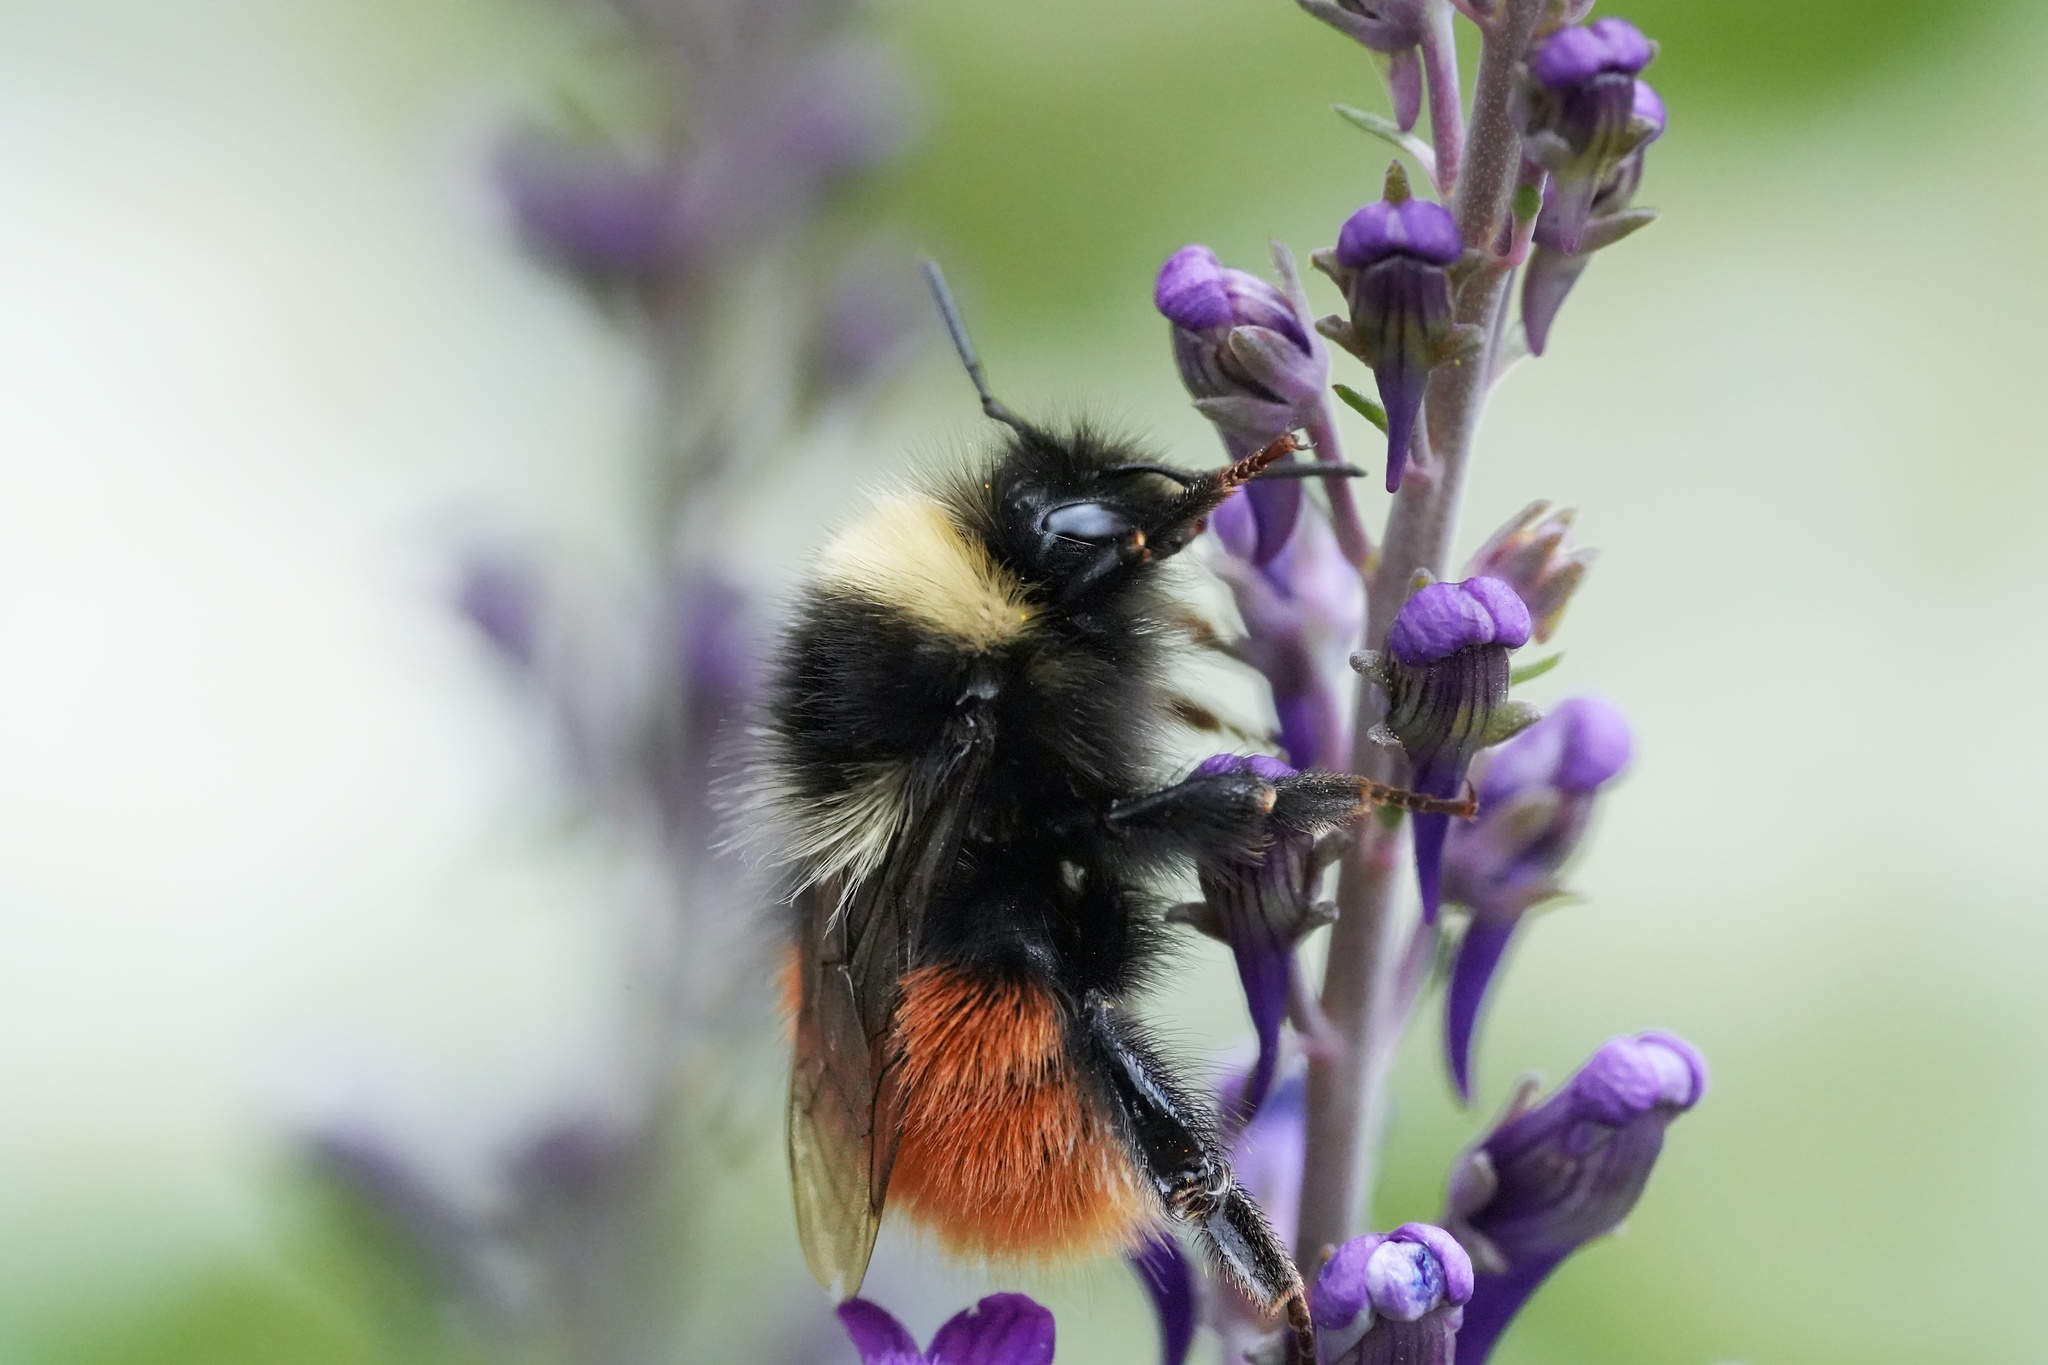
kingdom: Animalia
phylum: Arthropoda
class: Insecta
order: Hymenoptera
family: Apidae
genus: Bombus
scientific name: Bombus monticola
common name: Bilberry humble-bee
